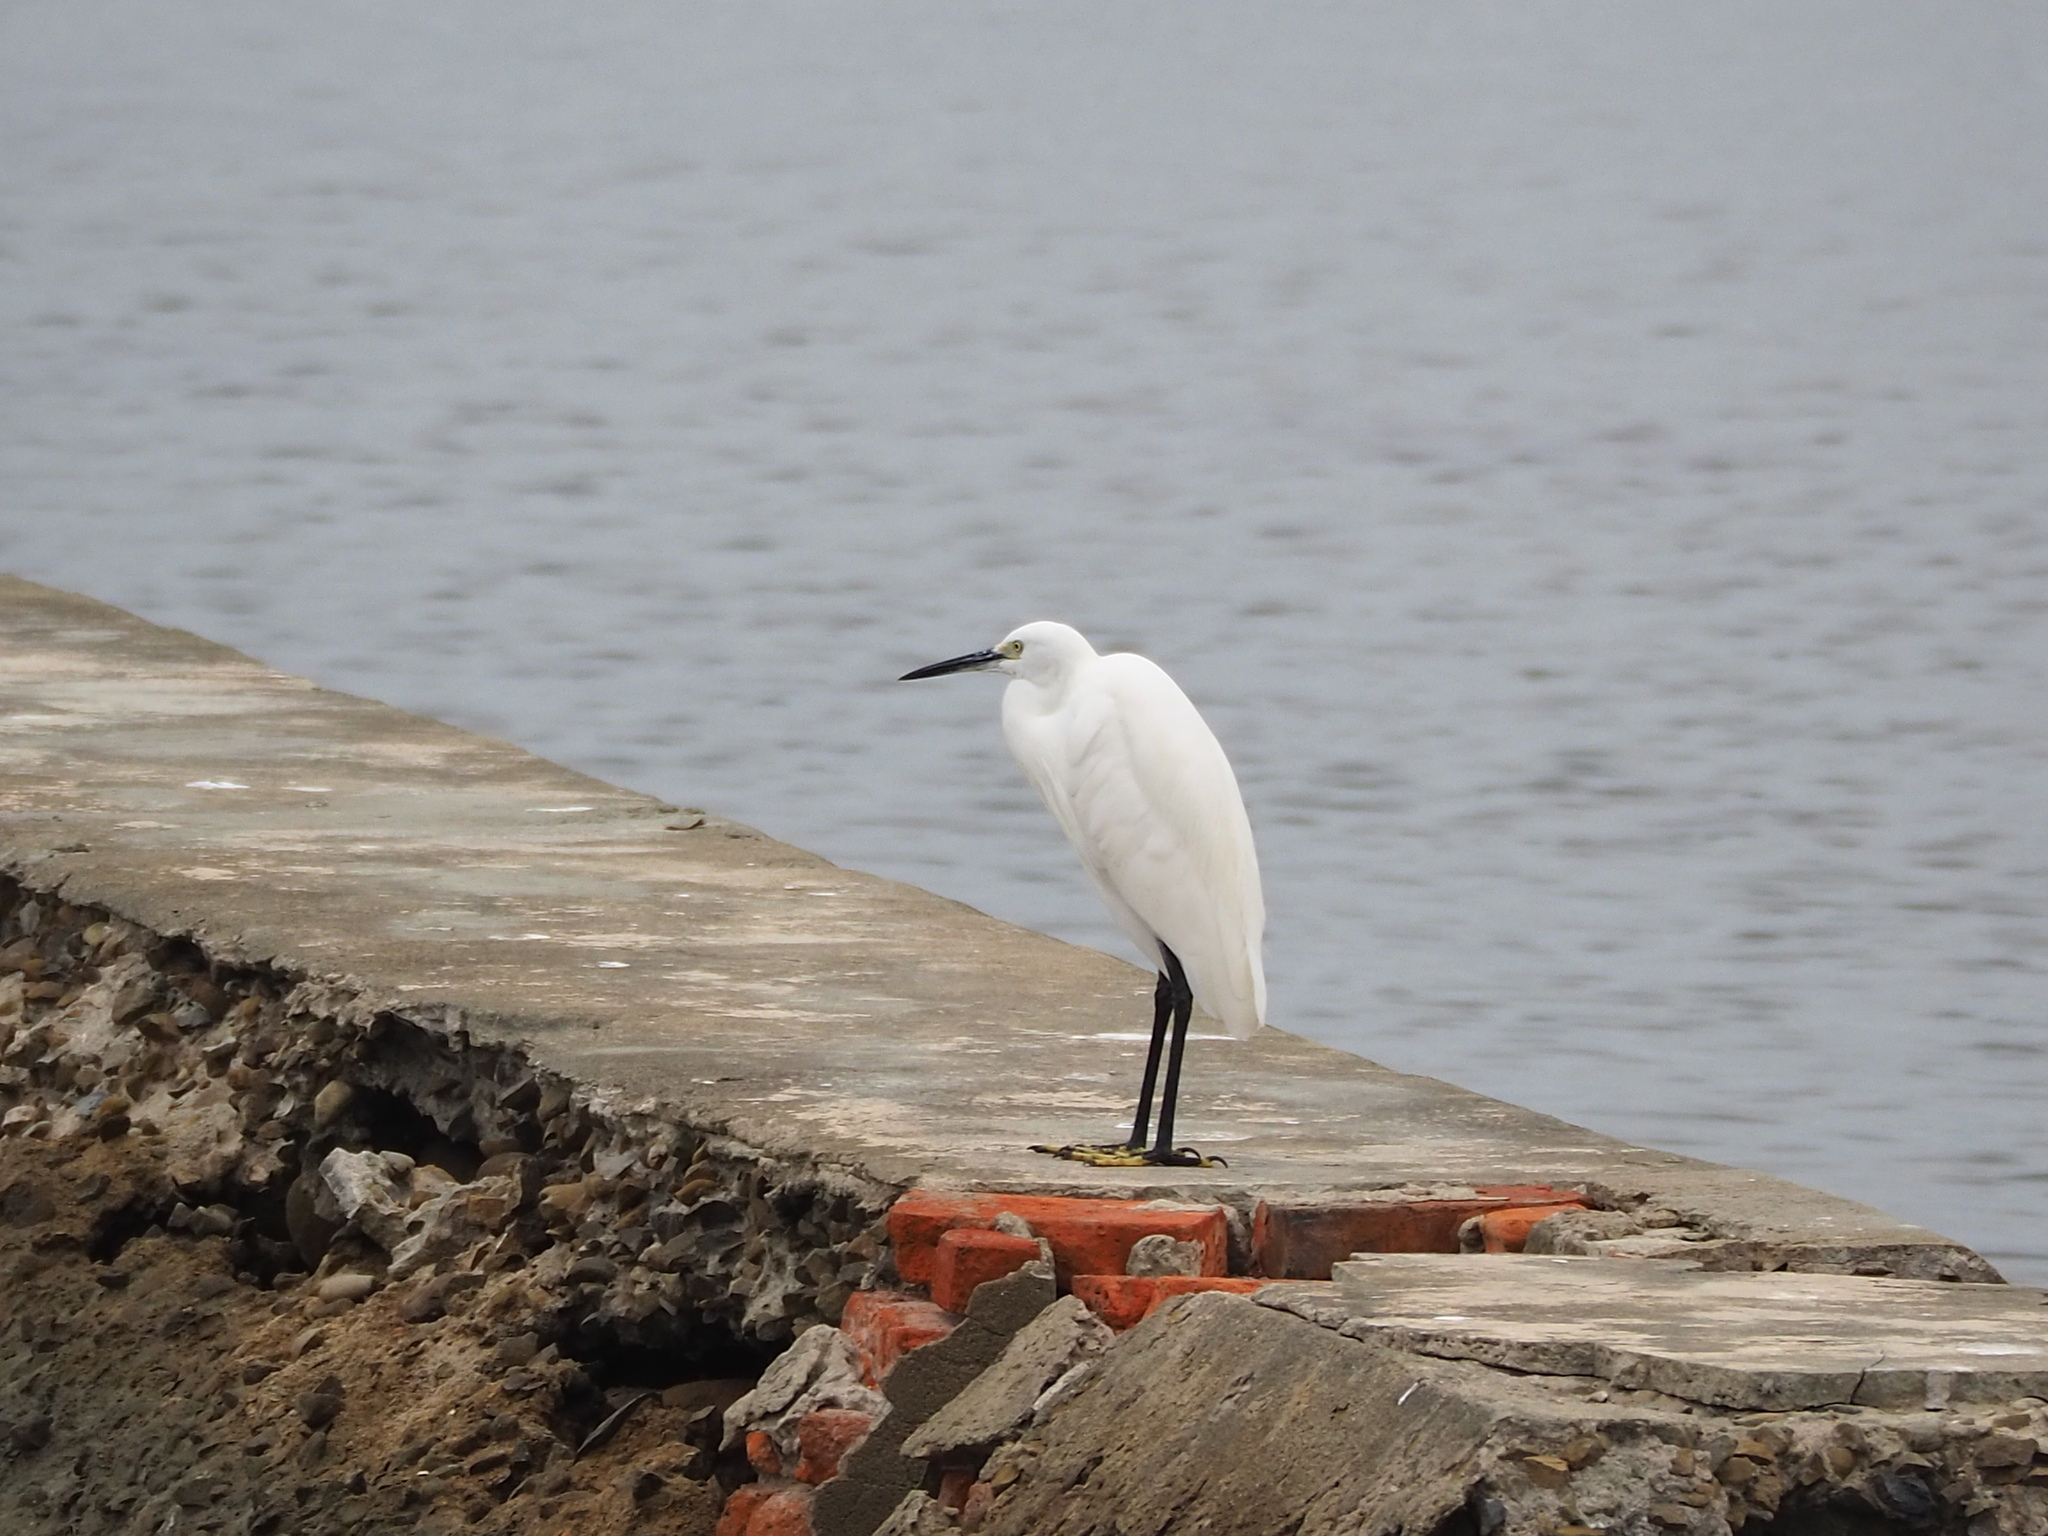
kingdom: Animalia
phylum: Chordata
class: Aves
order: Pelecaniformes
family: Ardeidae
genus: Egretta
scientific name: Egretta garzetta
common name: Little egret
